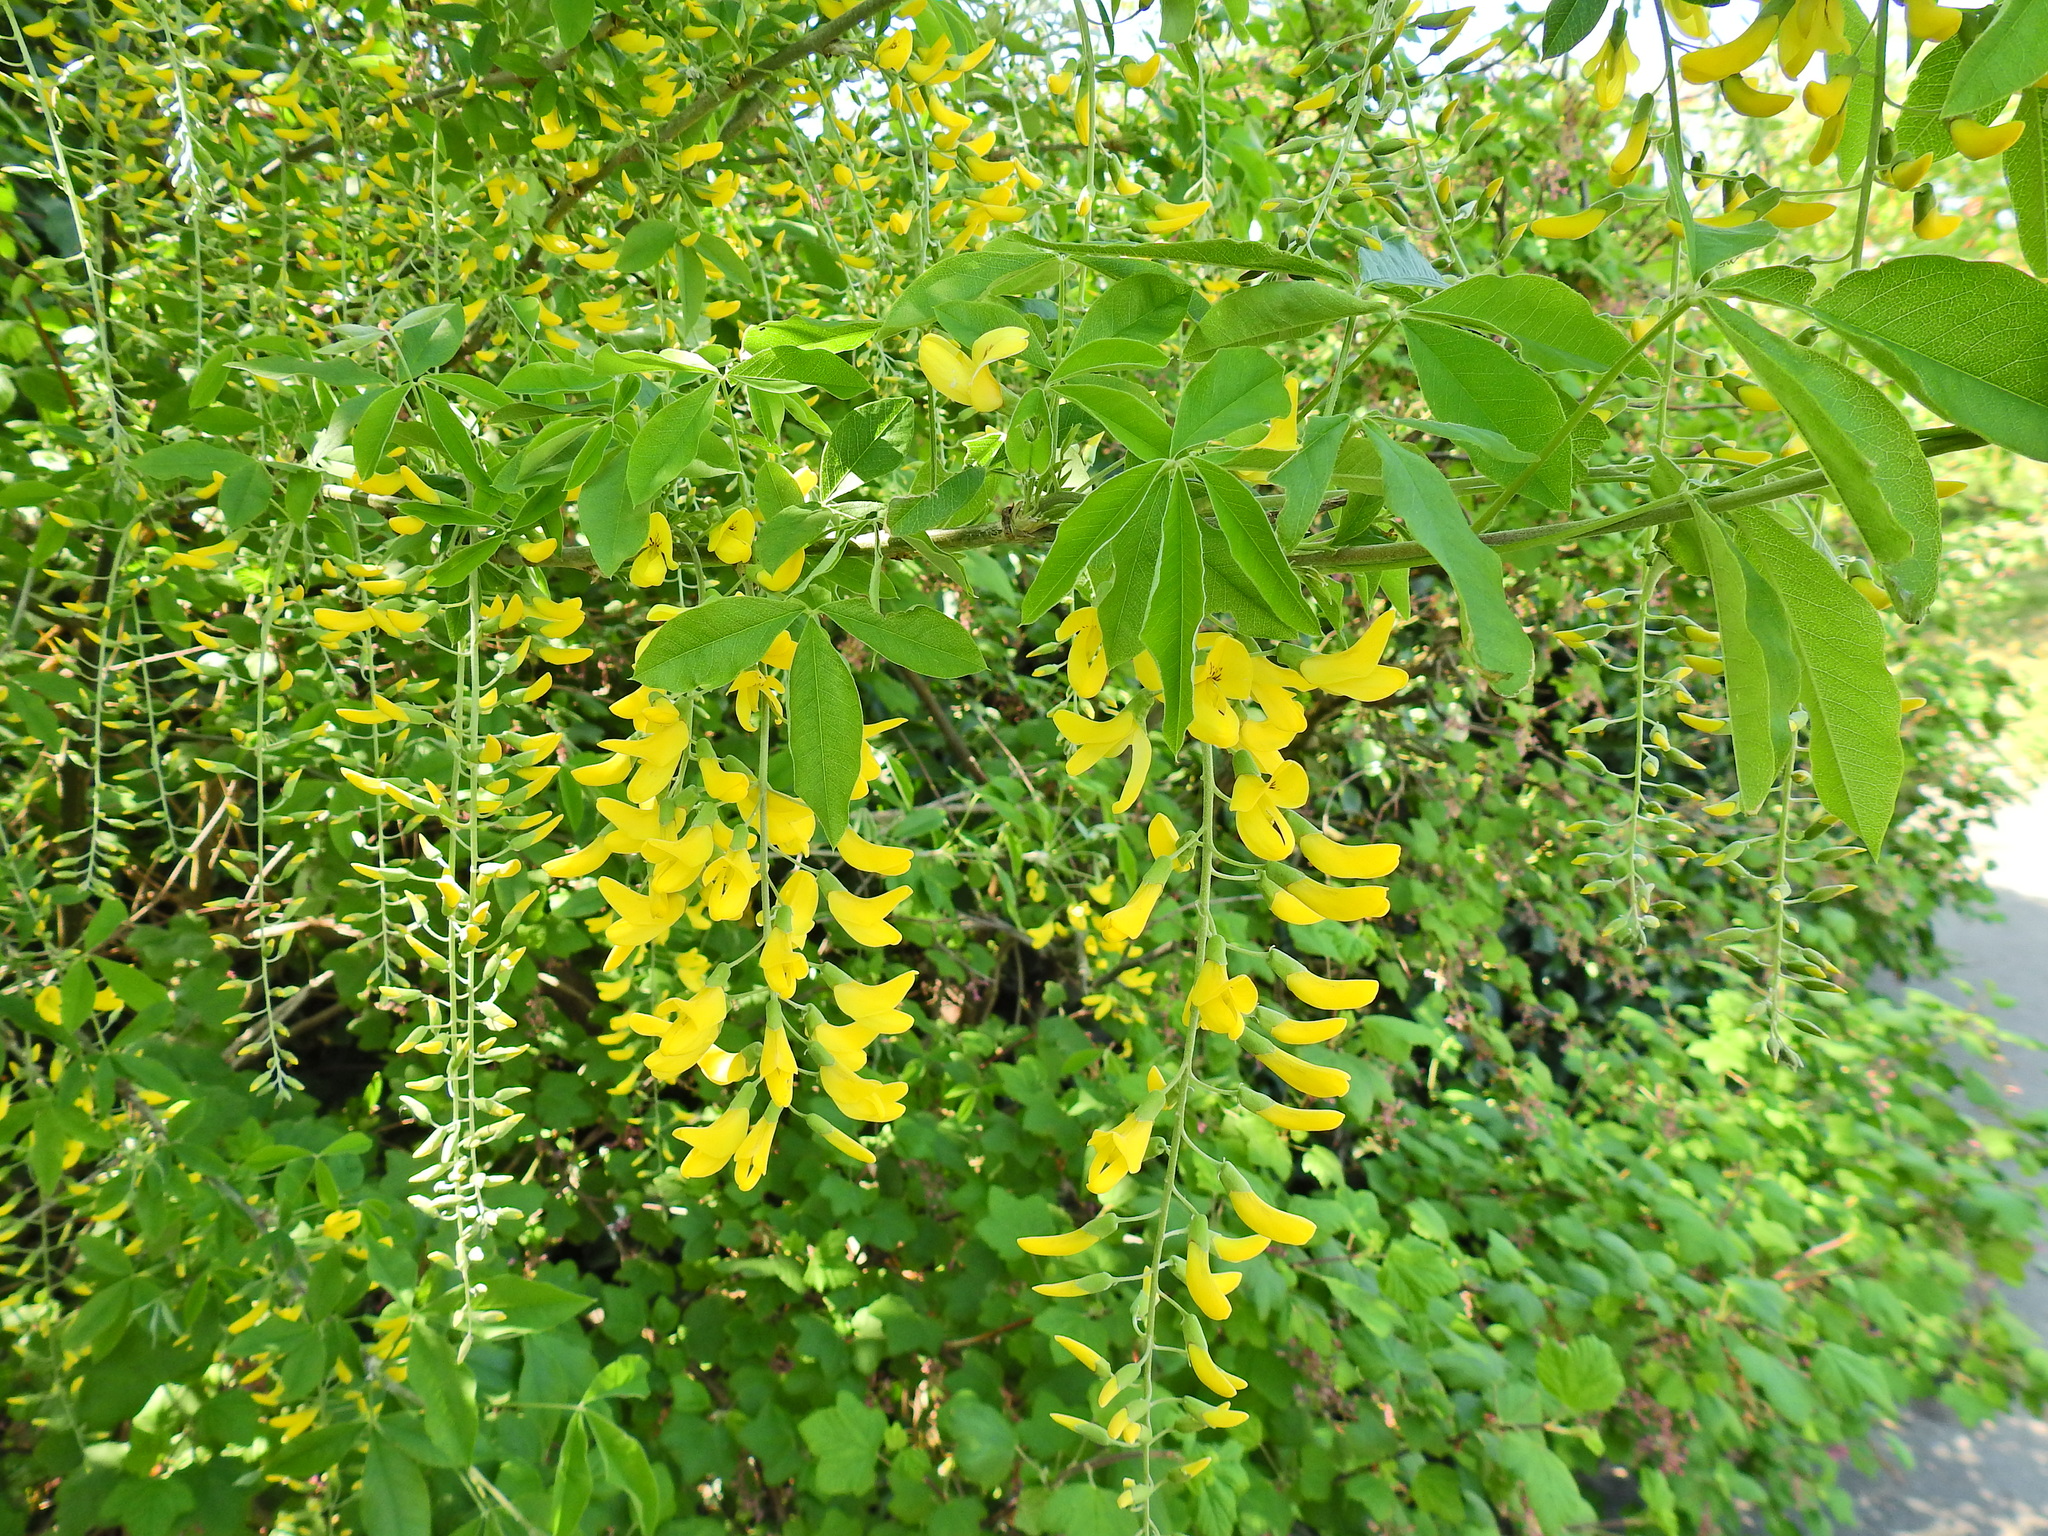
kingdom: Plantae
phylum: Tracheophyta
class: Magnoliopsida
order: Fabales
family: Fabaceae
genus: Laburnum
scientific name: Laburnum anagyroides
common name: Laburnum
